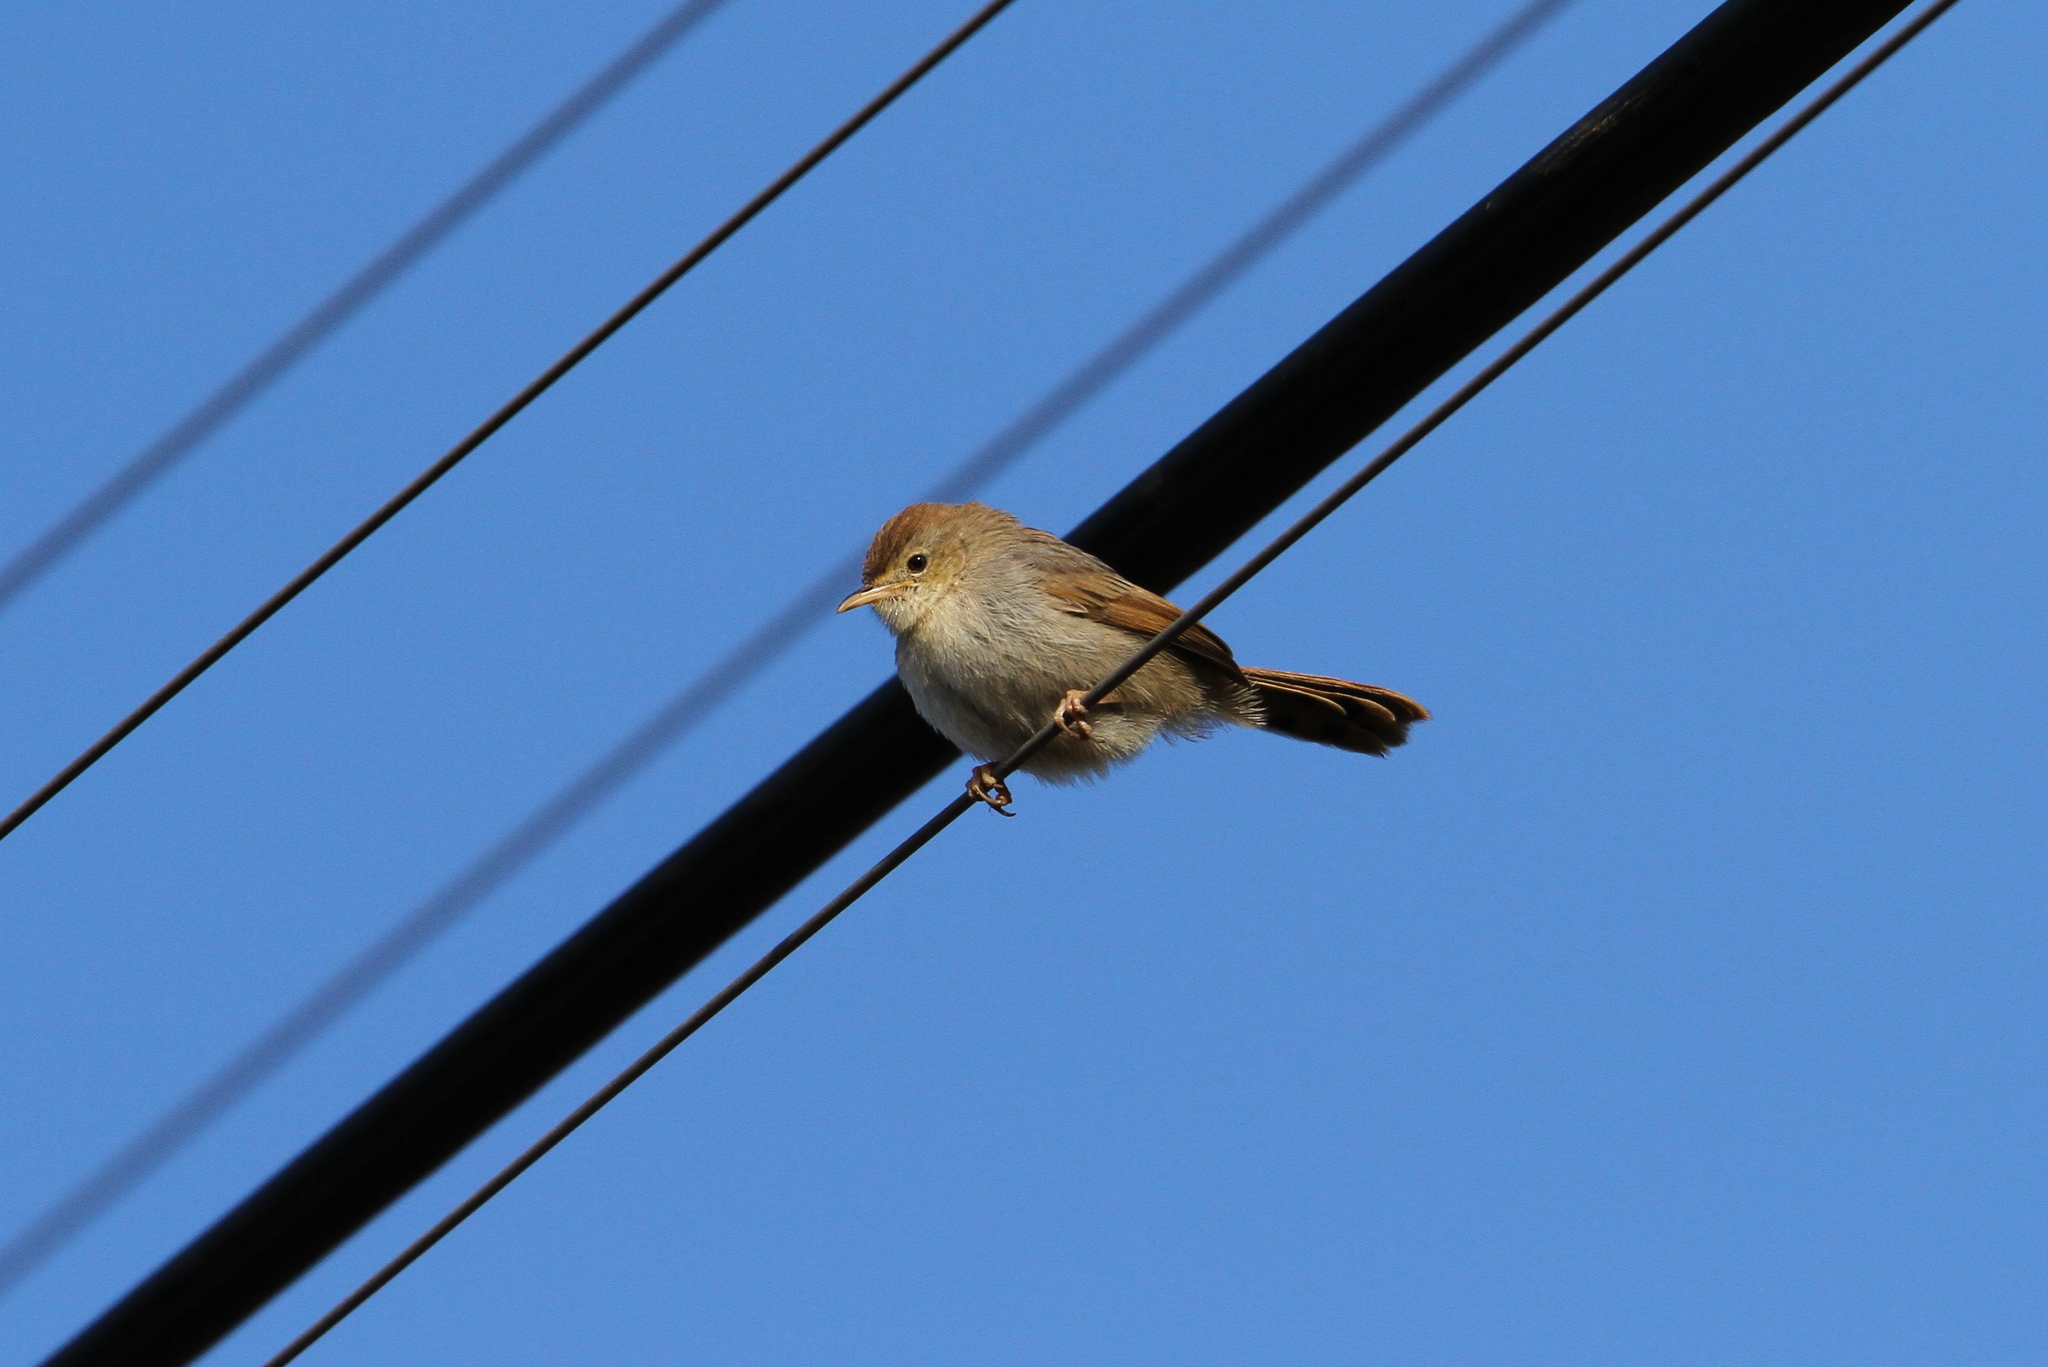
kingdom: Animalia
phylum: Chordata
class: Aves
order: Passeriformes
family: Cisticolidae
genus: Cisticola
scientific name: Cisticola fulvicapilla
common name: Neddicky
